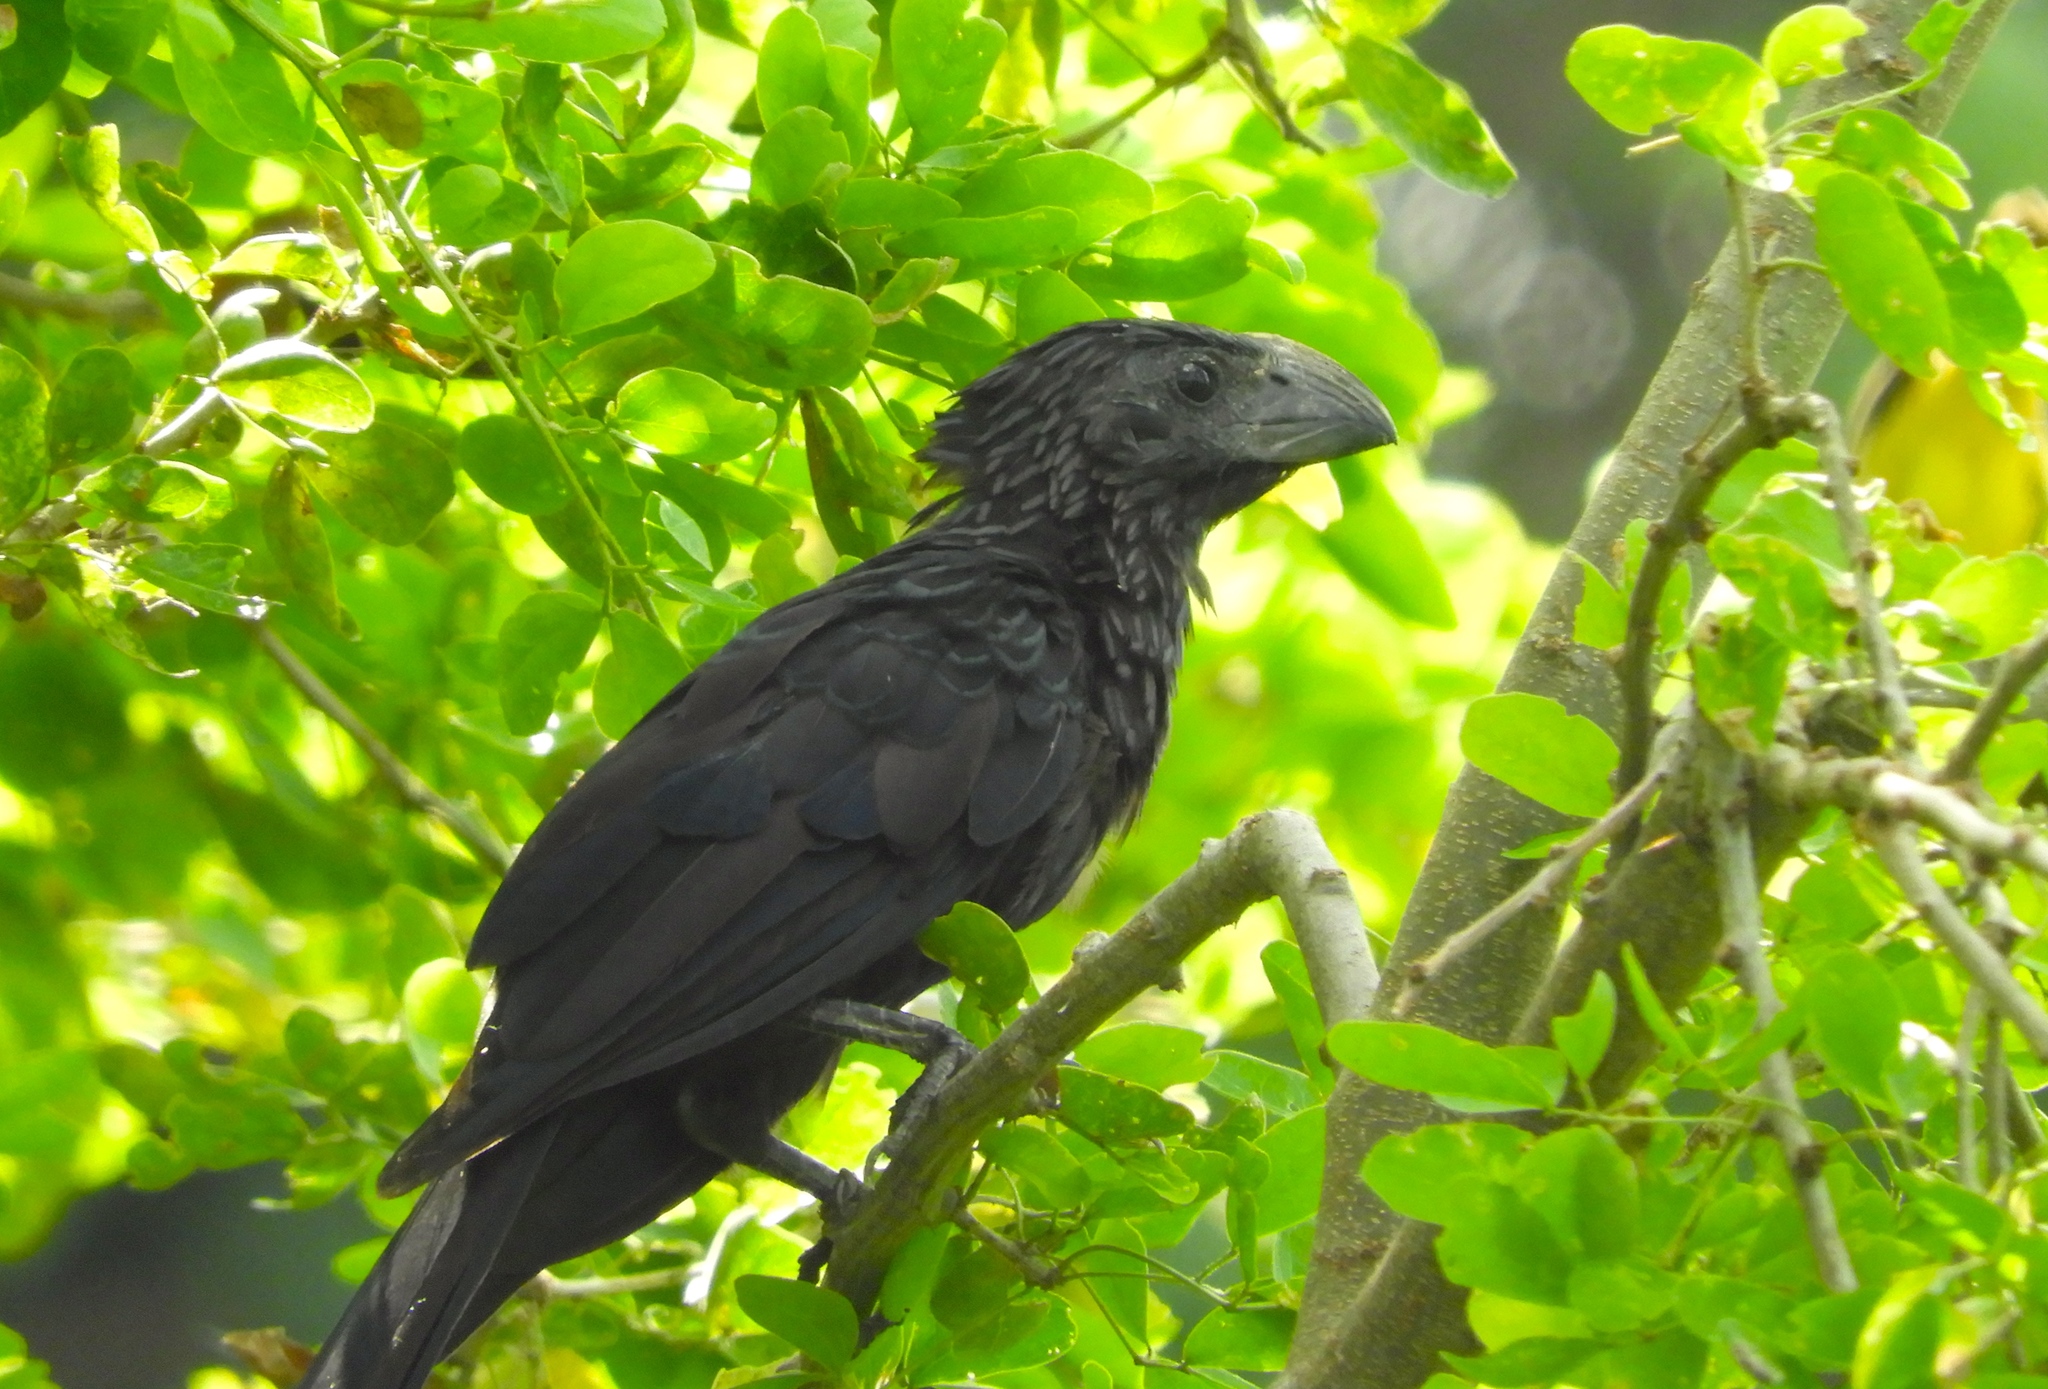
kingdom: Animalia
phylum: Chordata
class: Aves
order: Cuculiformes
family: Cuculidae
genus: Crotophaga
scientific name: Crotophaga sulcirostris
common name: Groove-billed ani
